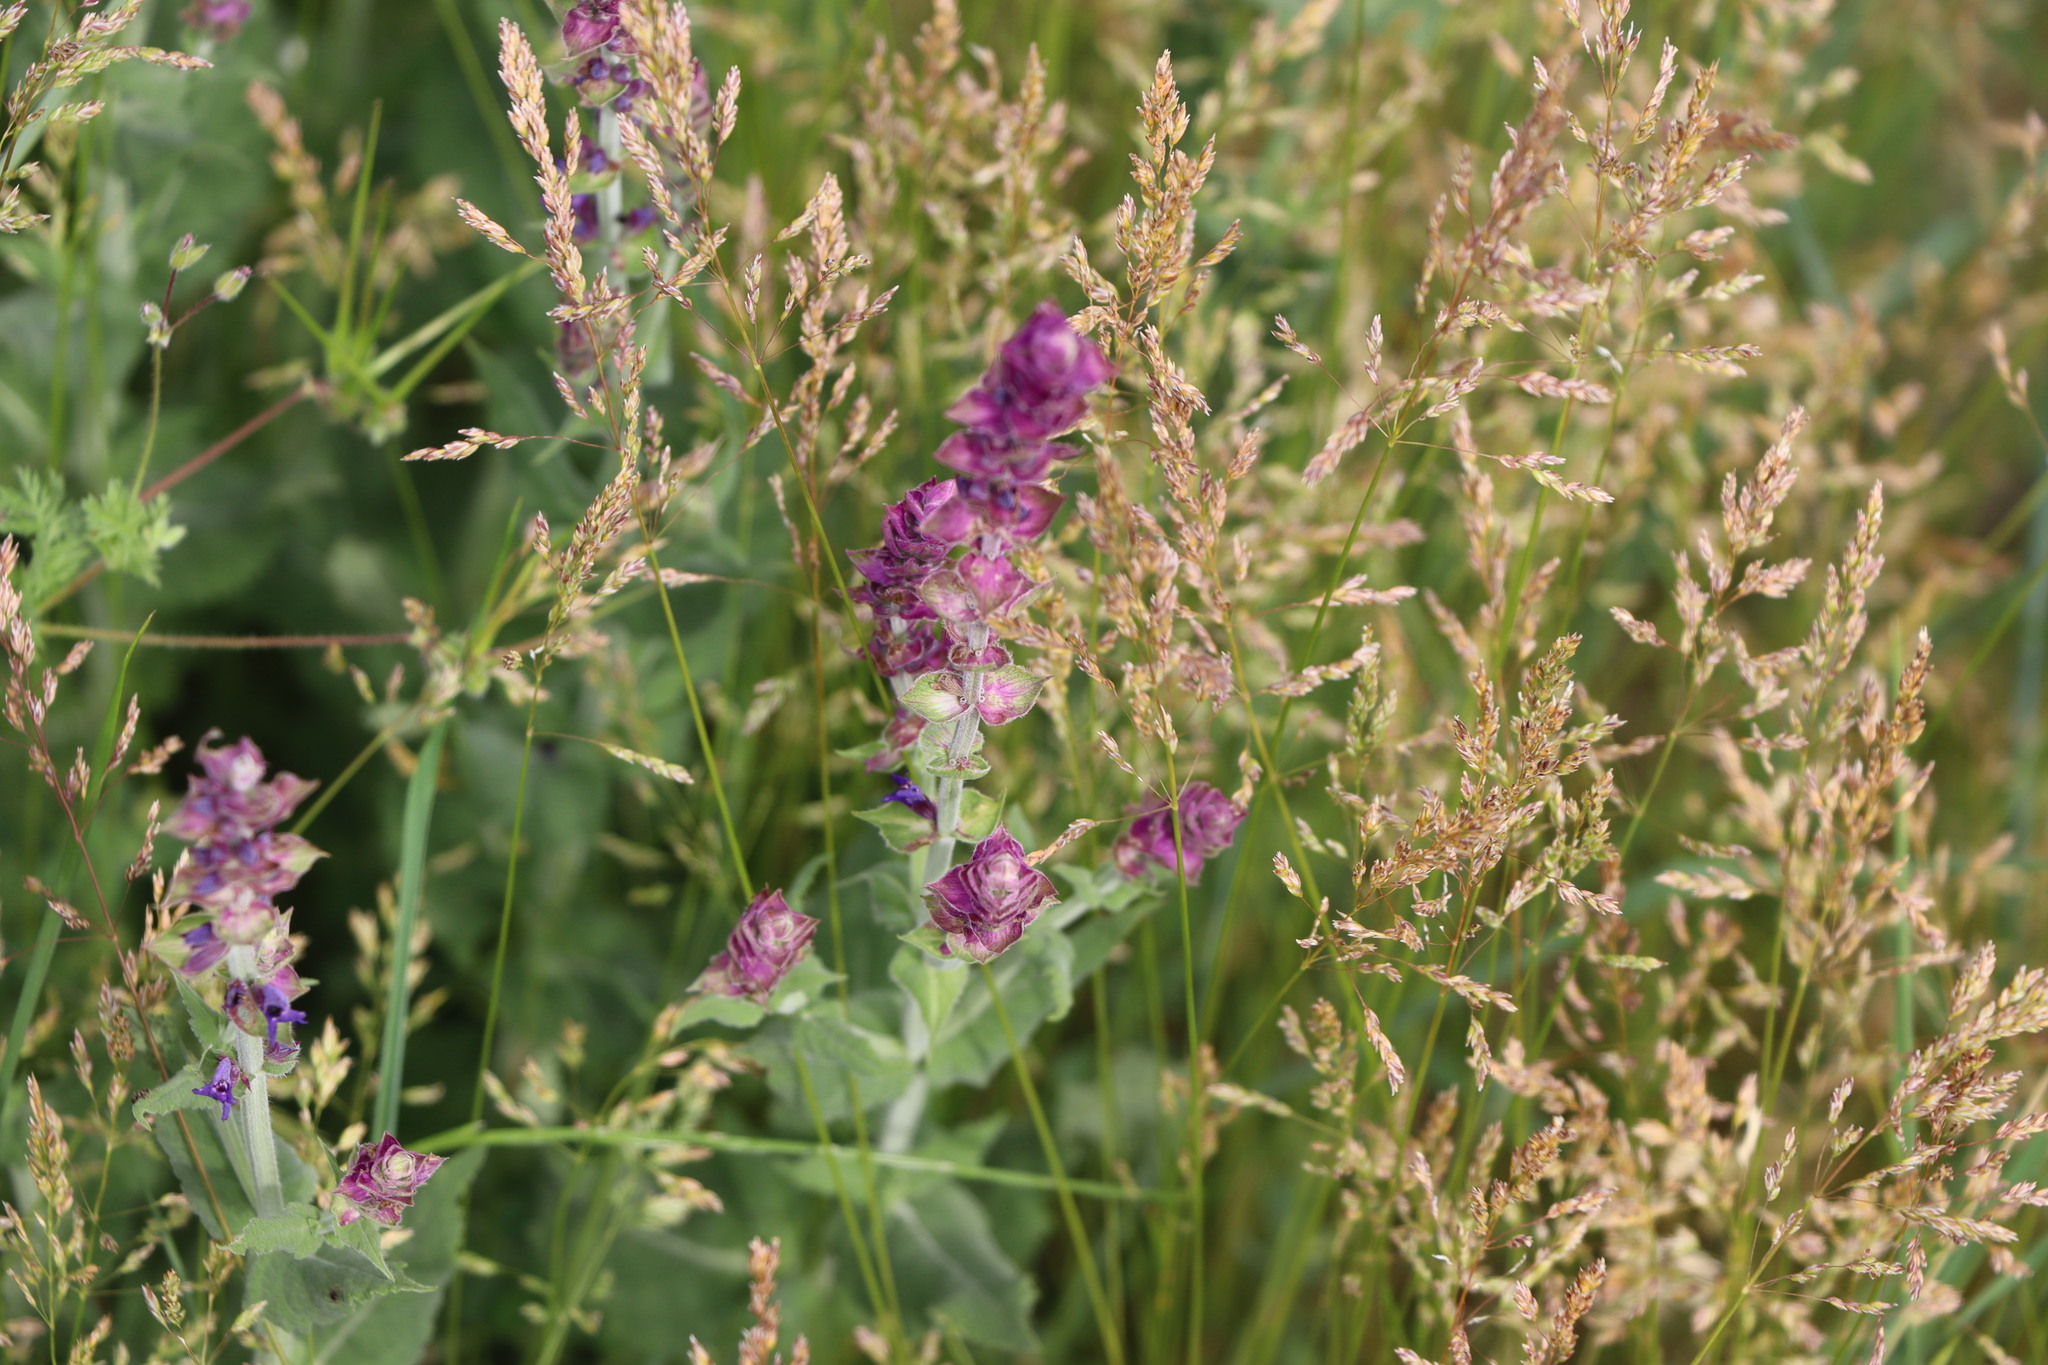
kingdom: Plantae
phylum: Tracheophyta
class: Magnoliopsida
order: Lamiales
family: Lamiaceae
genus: Salvia
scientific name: Salvia nemorosa
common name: Balkan clary
